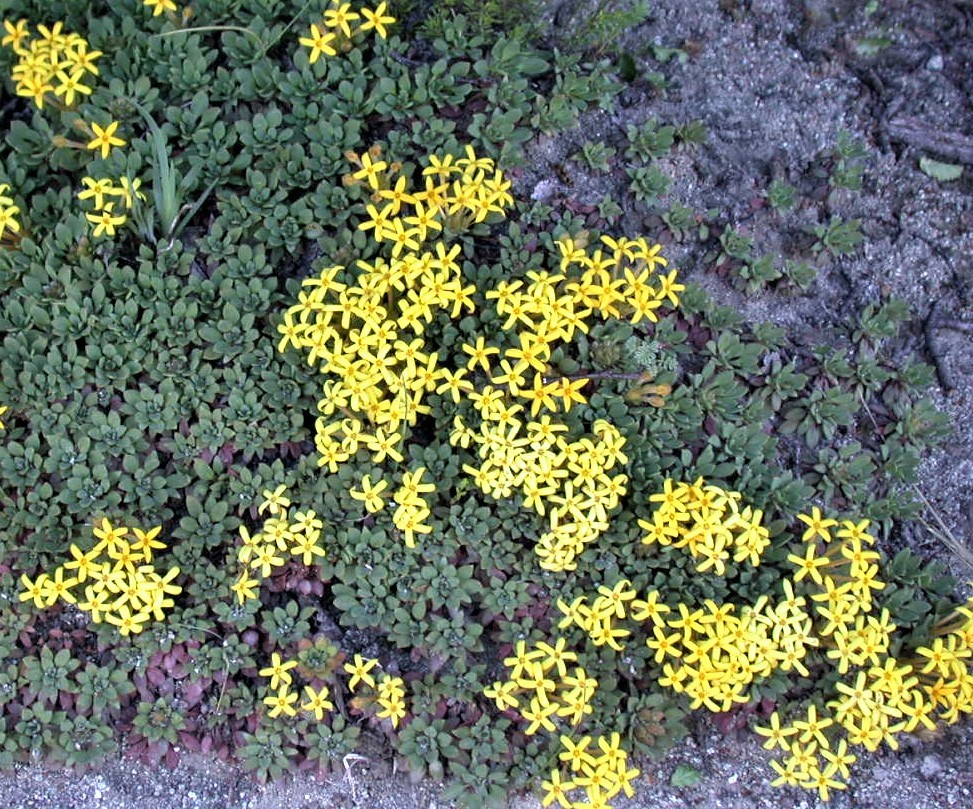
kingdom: Plantae
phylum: Tracheophyta
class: Magnoliopsida
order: Gentianales
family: Rubiaceae
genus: Oreopolus
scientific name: Oreopolus glacialis
